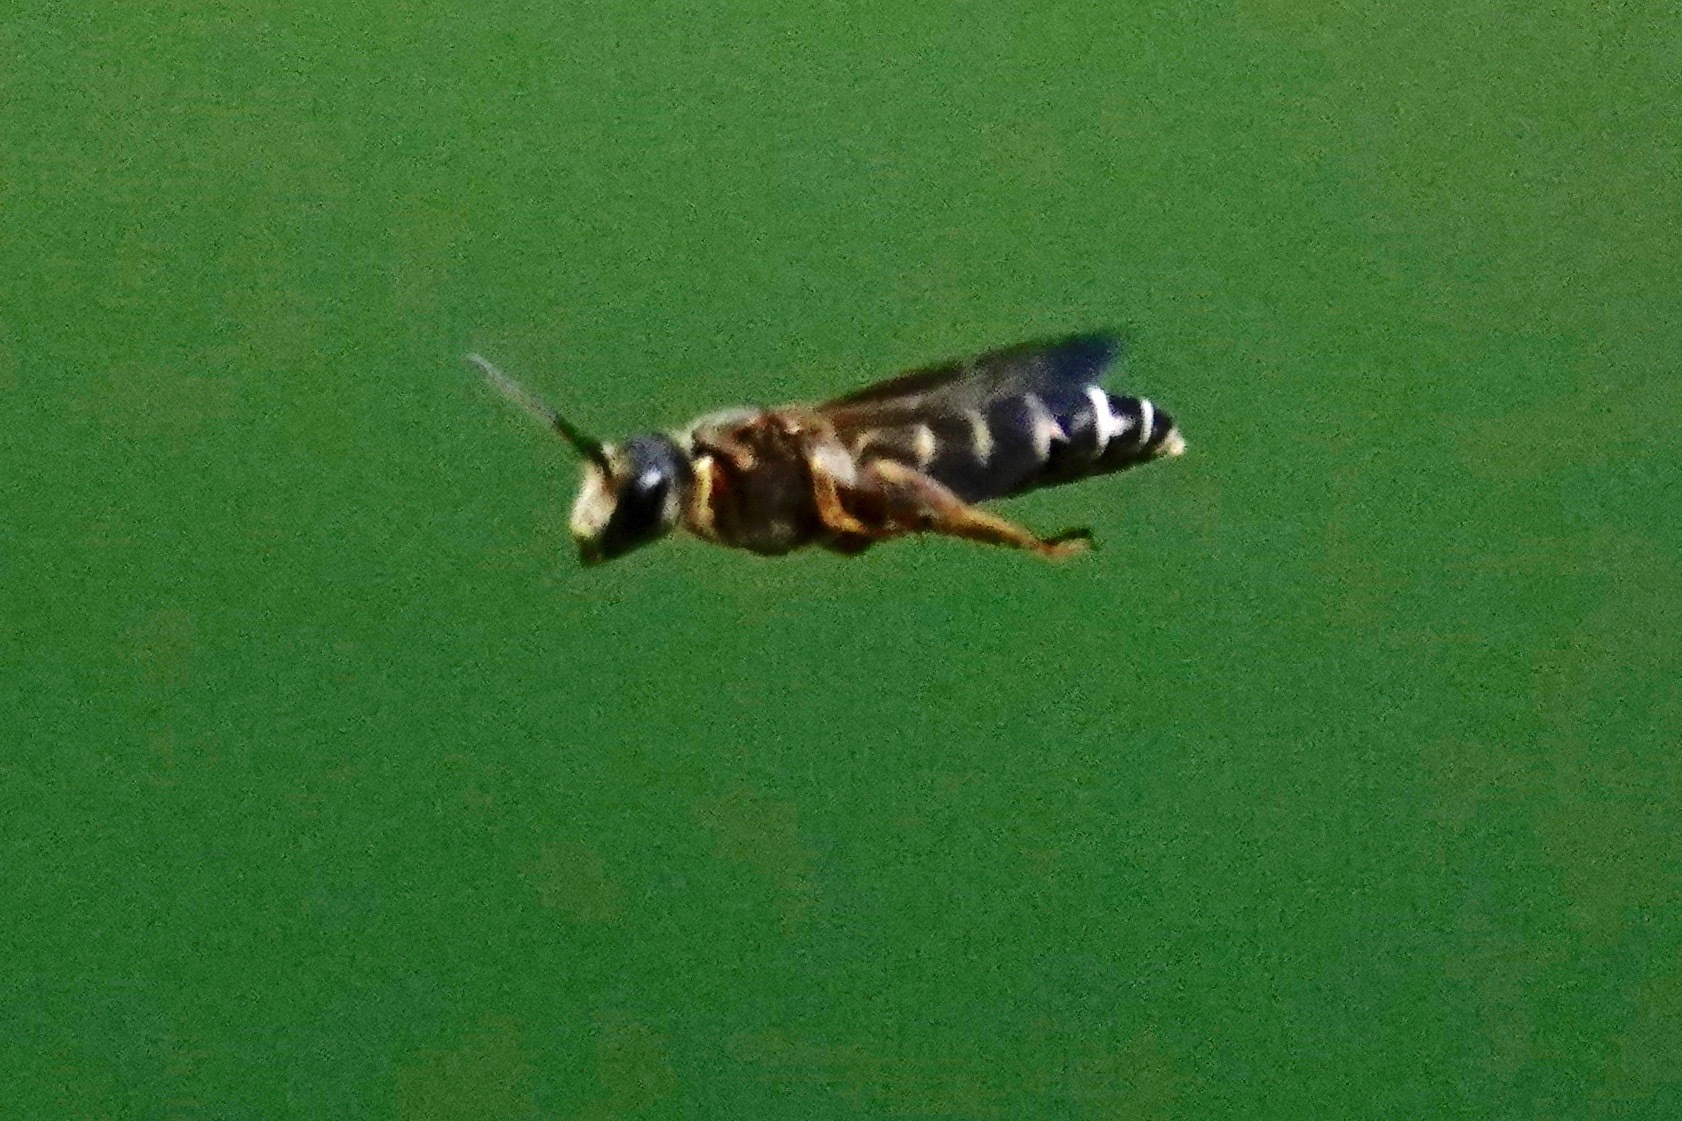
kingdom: Animalia
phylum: Arthropoda
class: Insecta
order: Hymenoptera
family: Halictidae
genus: Halictus
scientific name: Halictus parallelus
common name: Parallel-striped sweat bee
